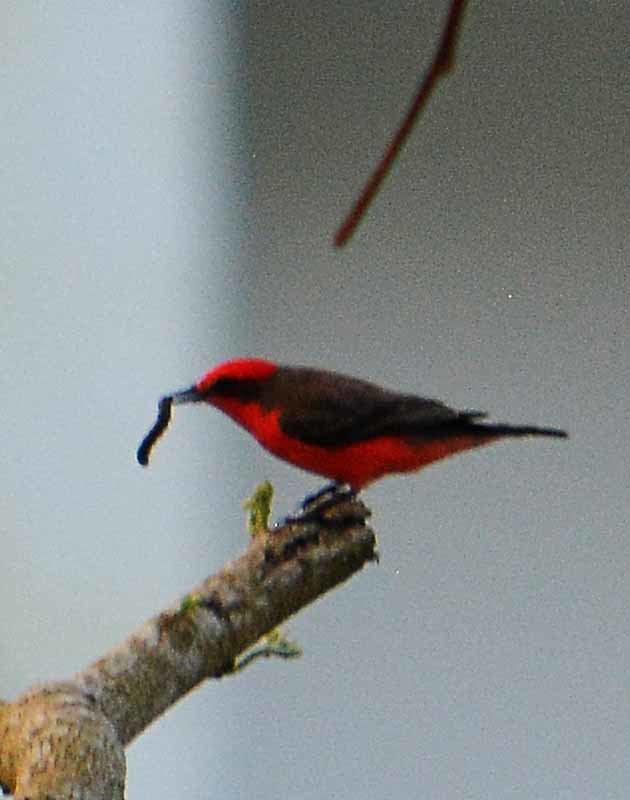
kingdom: Animalia
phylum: Chordata
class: Aves
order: Passeriformes
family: Tyrannidae
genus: Pyrocephalus
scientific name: Pyrocephalus rubinus
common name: Vermilion flycatcher
